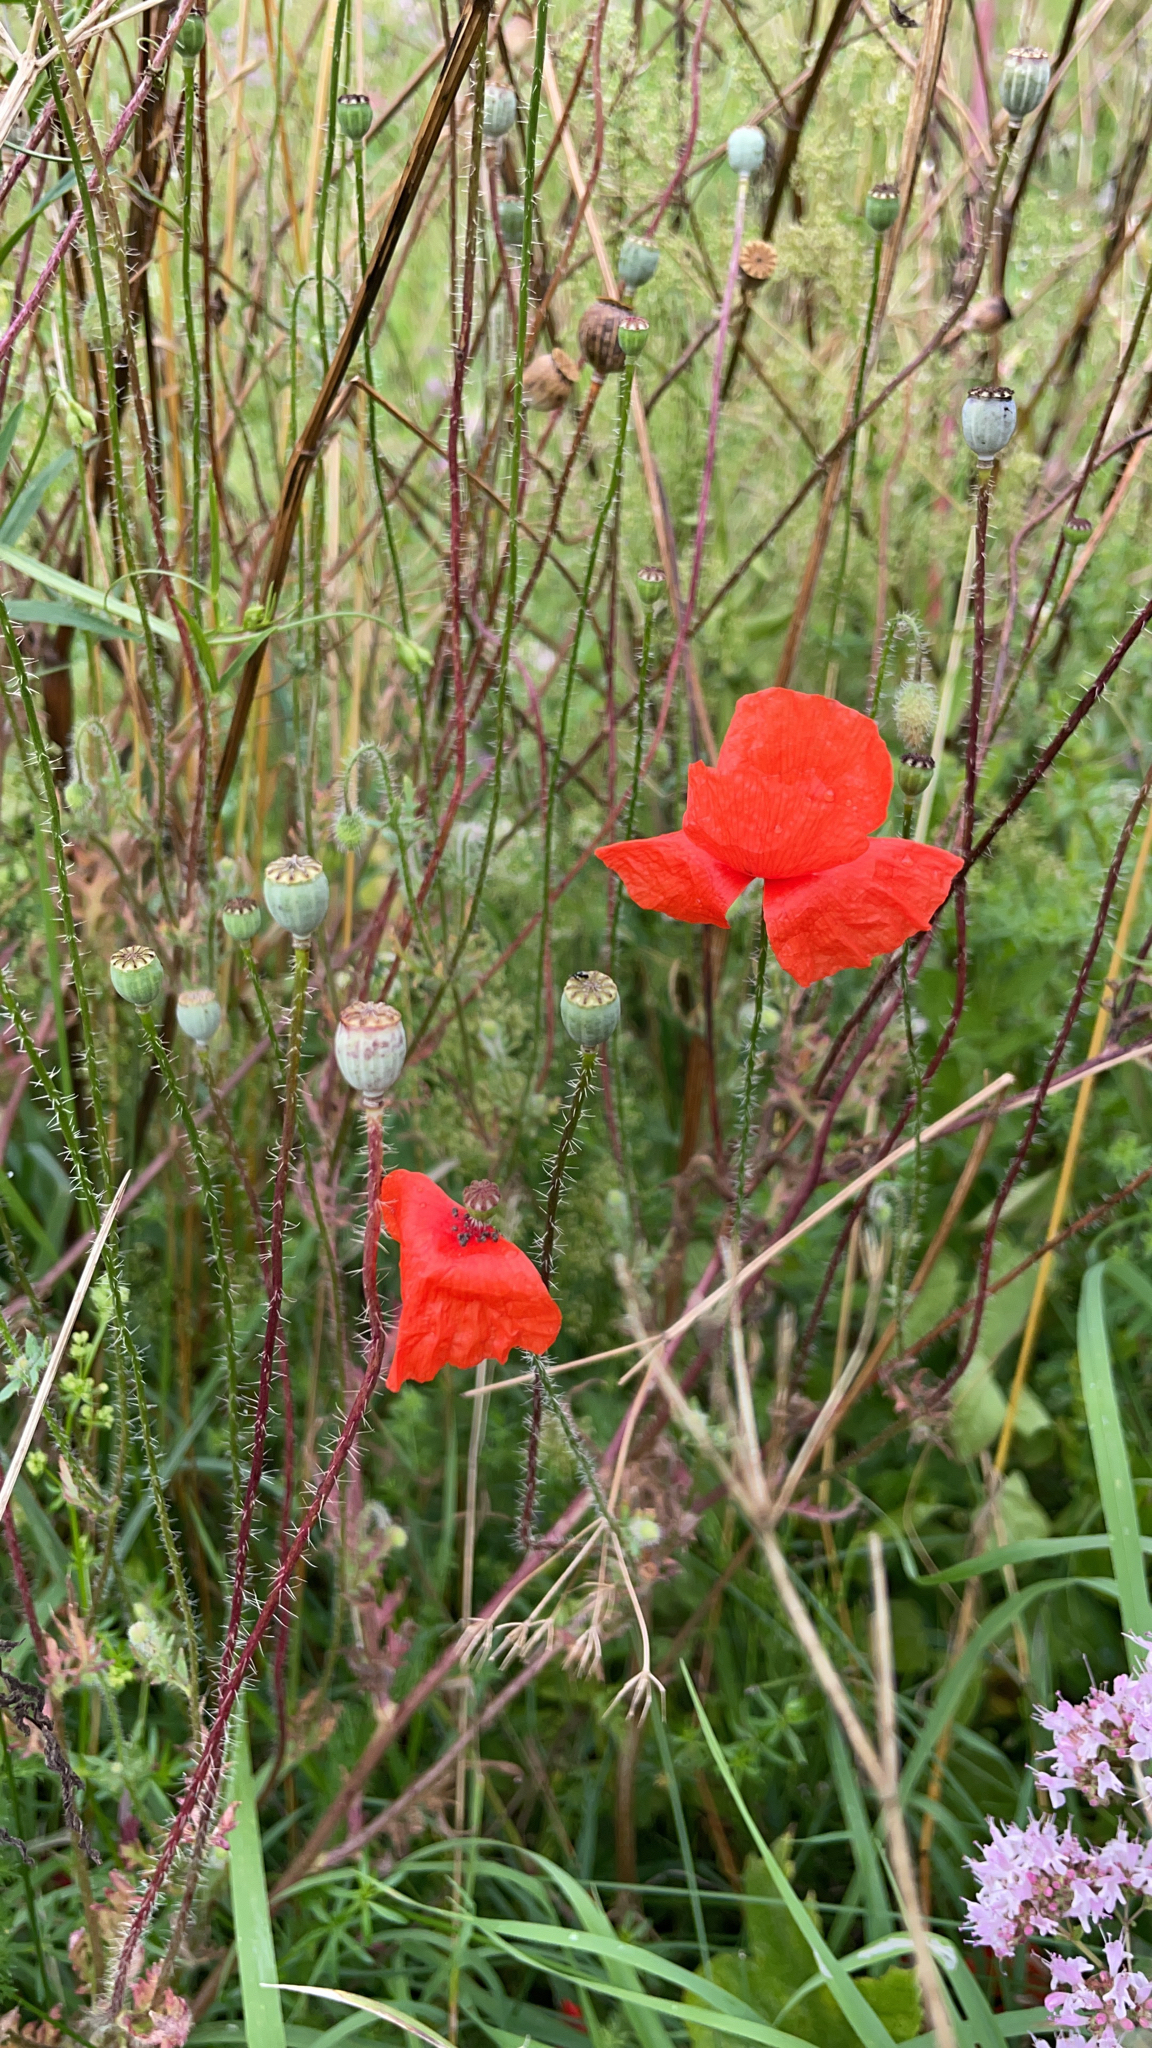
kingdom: Plantae
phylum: Tracheophyta
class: Magnoliopsida
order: Ranunculales
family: Papaveraceae
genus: Papaver
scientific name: Papaver rhoeas
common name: Corn poppy
